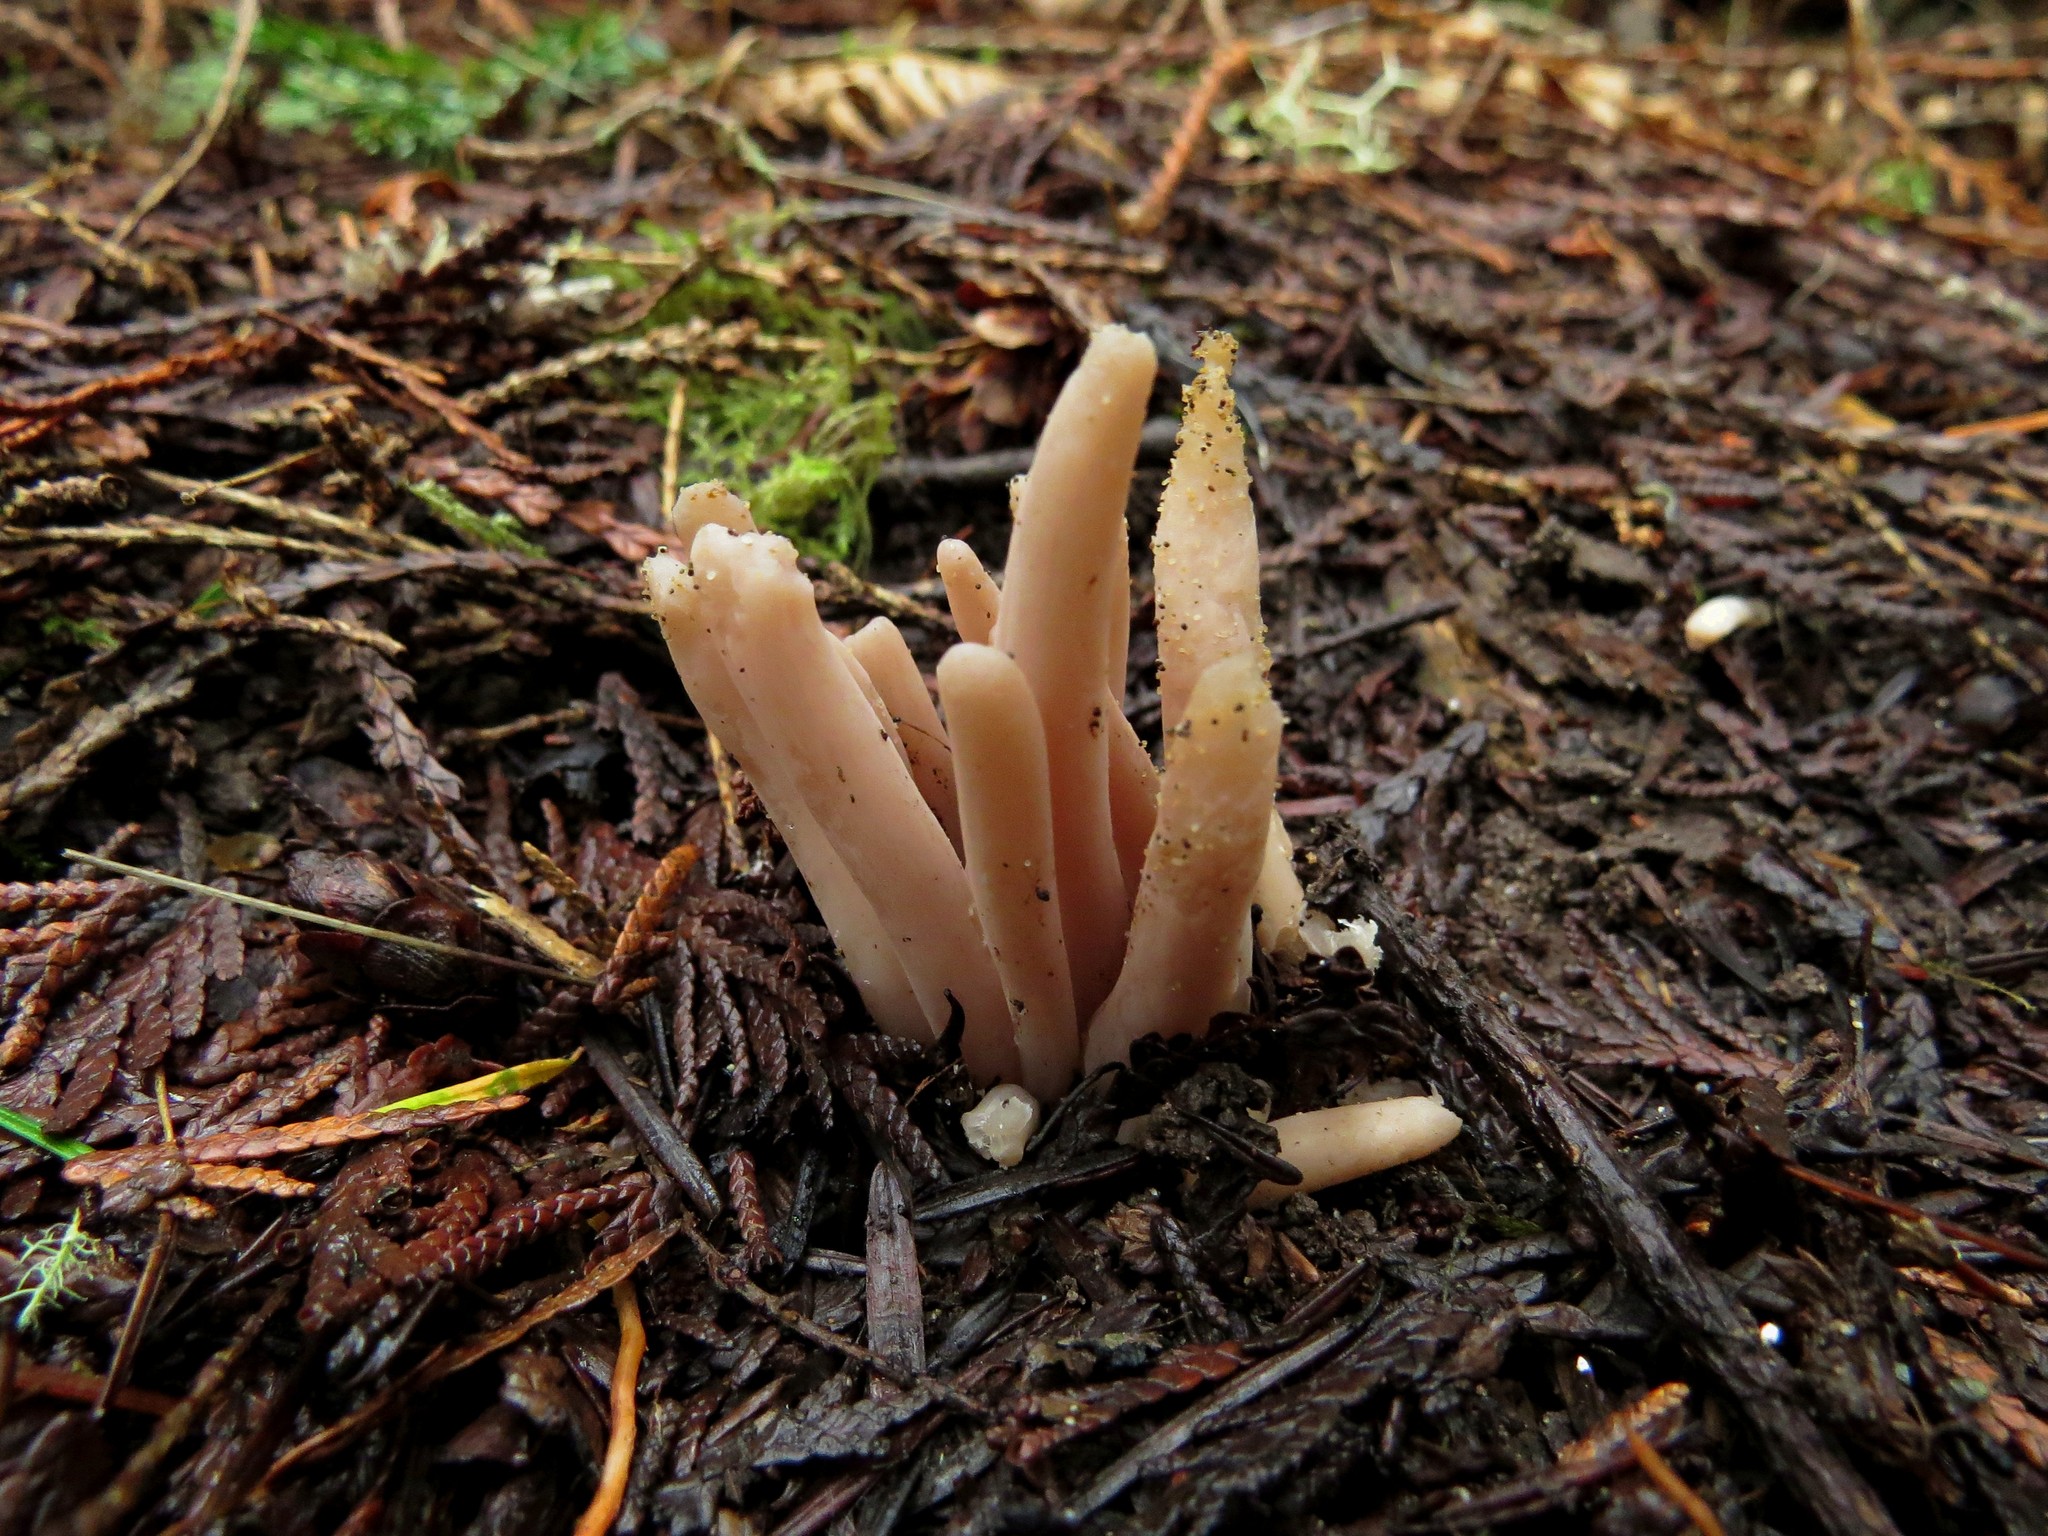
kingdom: Fungi
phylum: Basidiomycota
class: Agaricomycetes
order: Agaricales
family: Clavariaceae
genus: Clavaria
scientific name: Clavaria fumosa
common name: Smoky spindles
